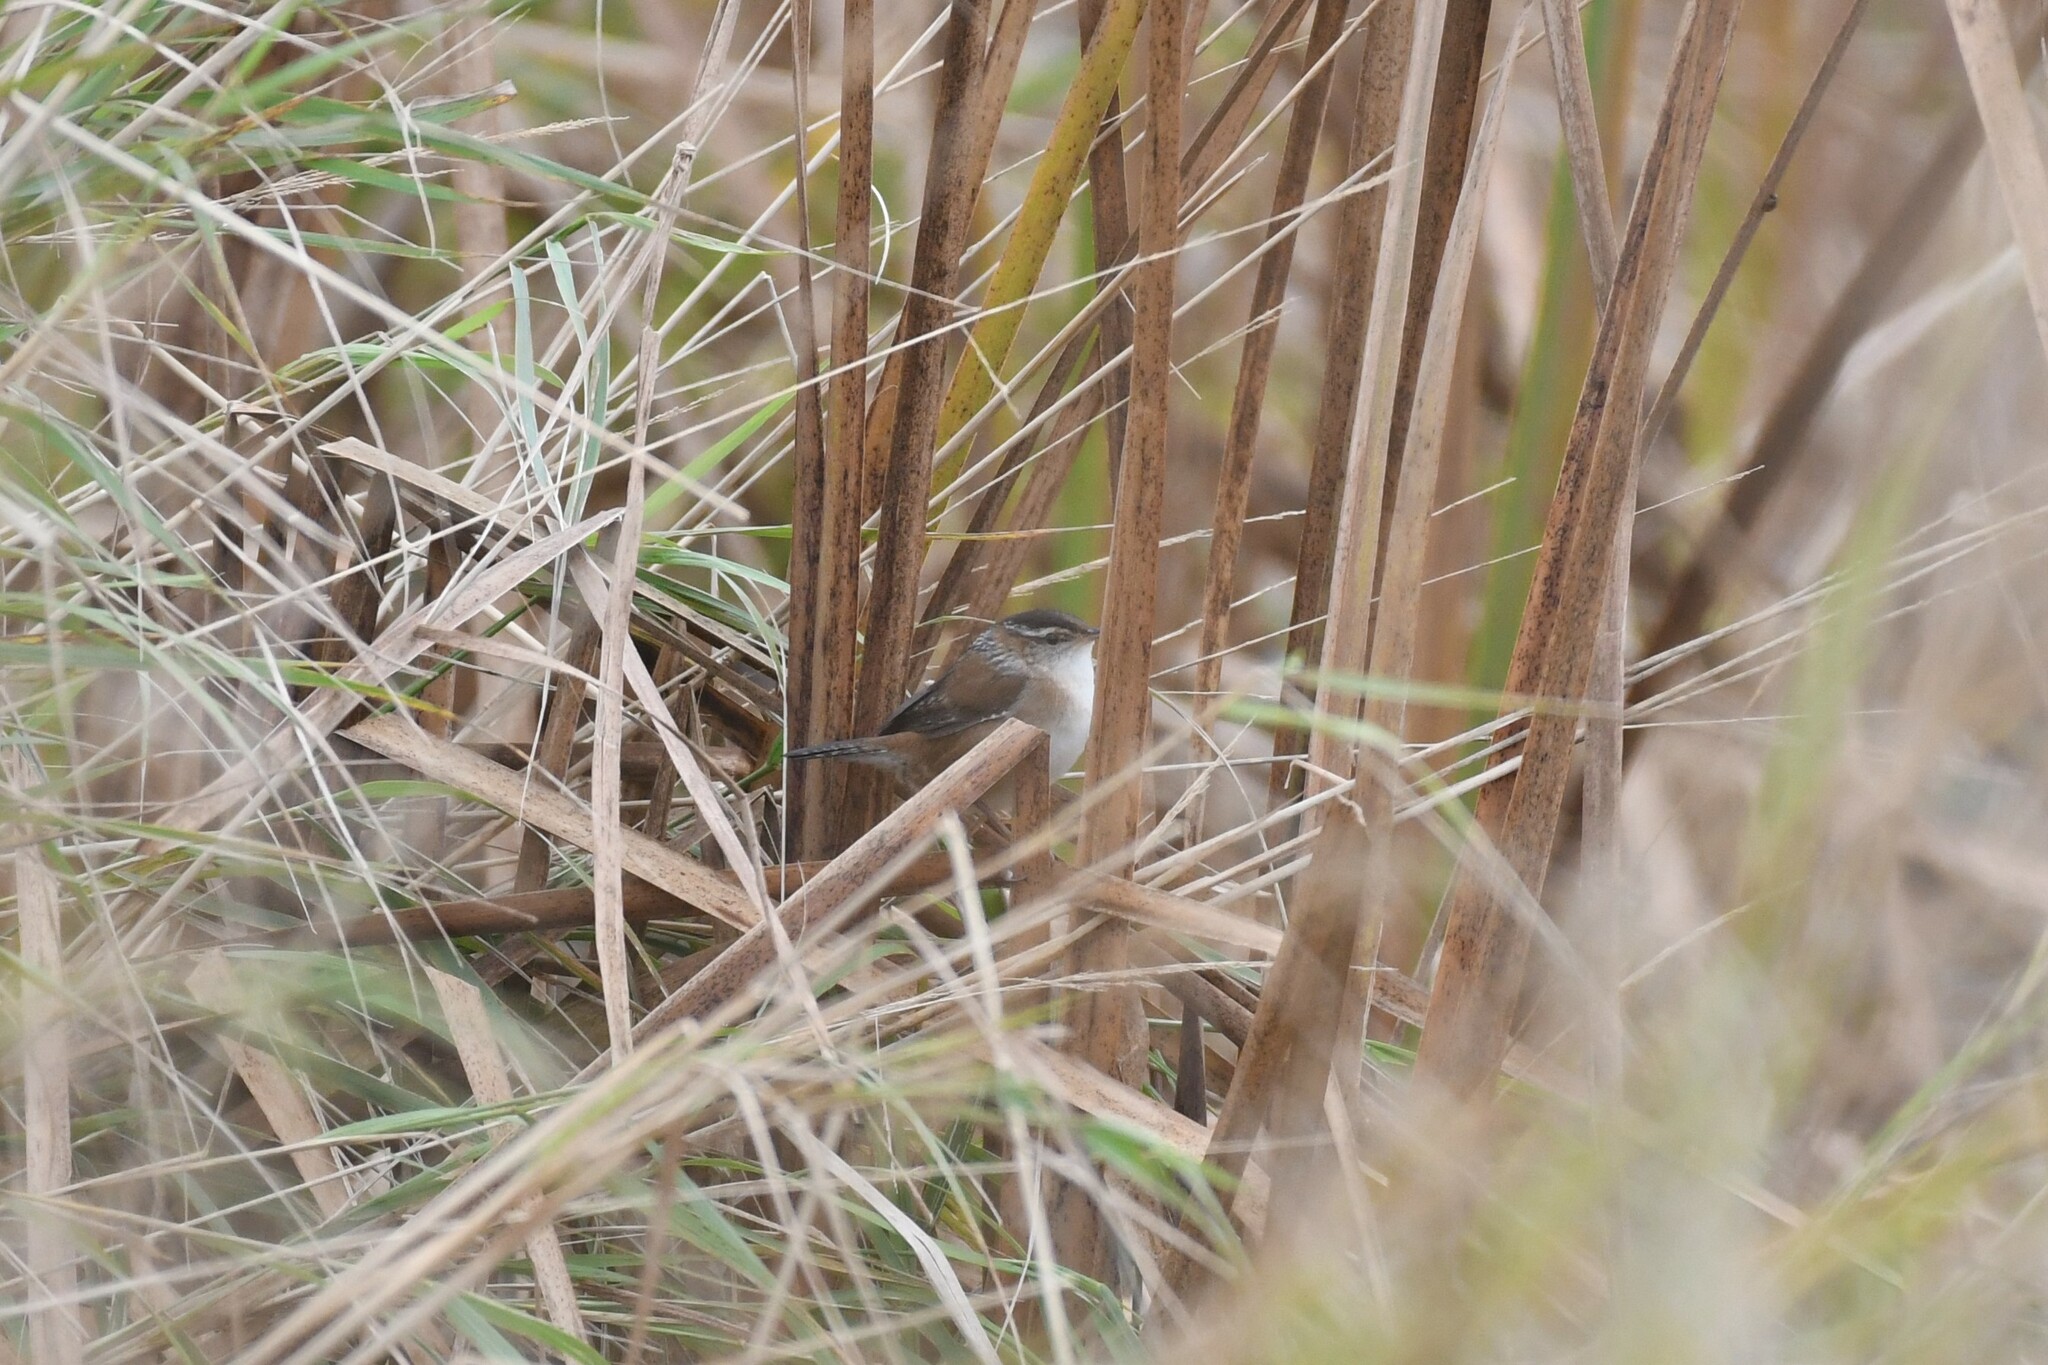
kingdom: Animalia
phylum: Chordata
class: Aves
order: Passeriformes
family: Troglodytidae
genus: Cistothorus
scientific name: Cistothorus palustris
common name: Marsh wren
